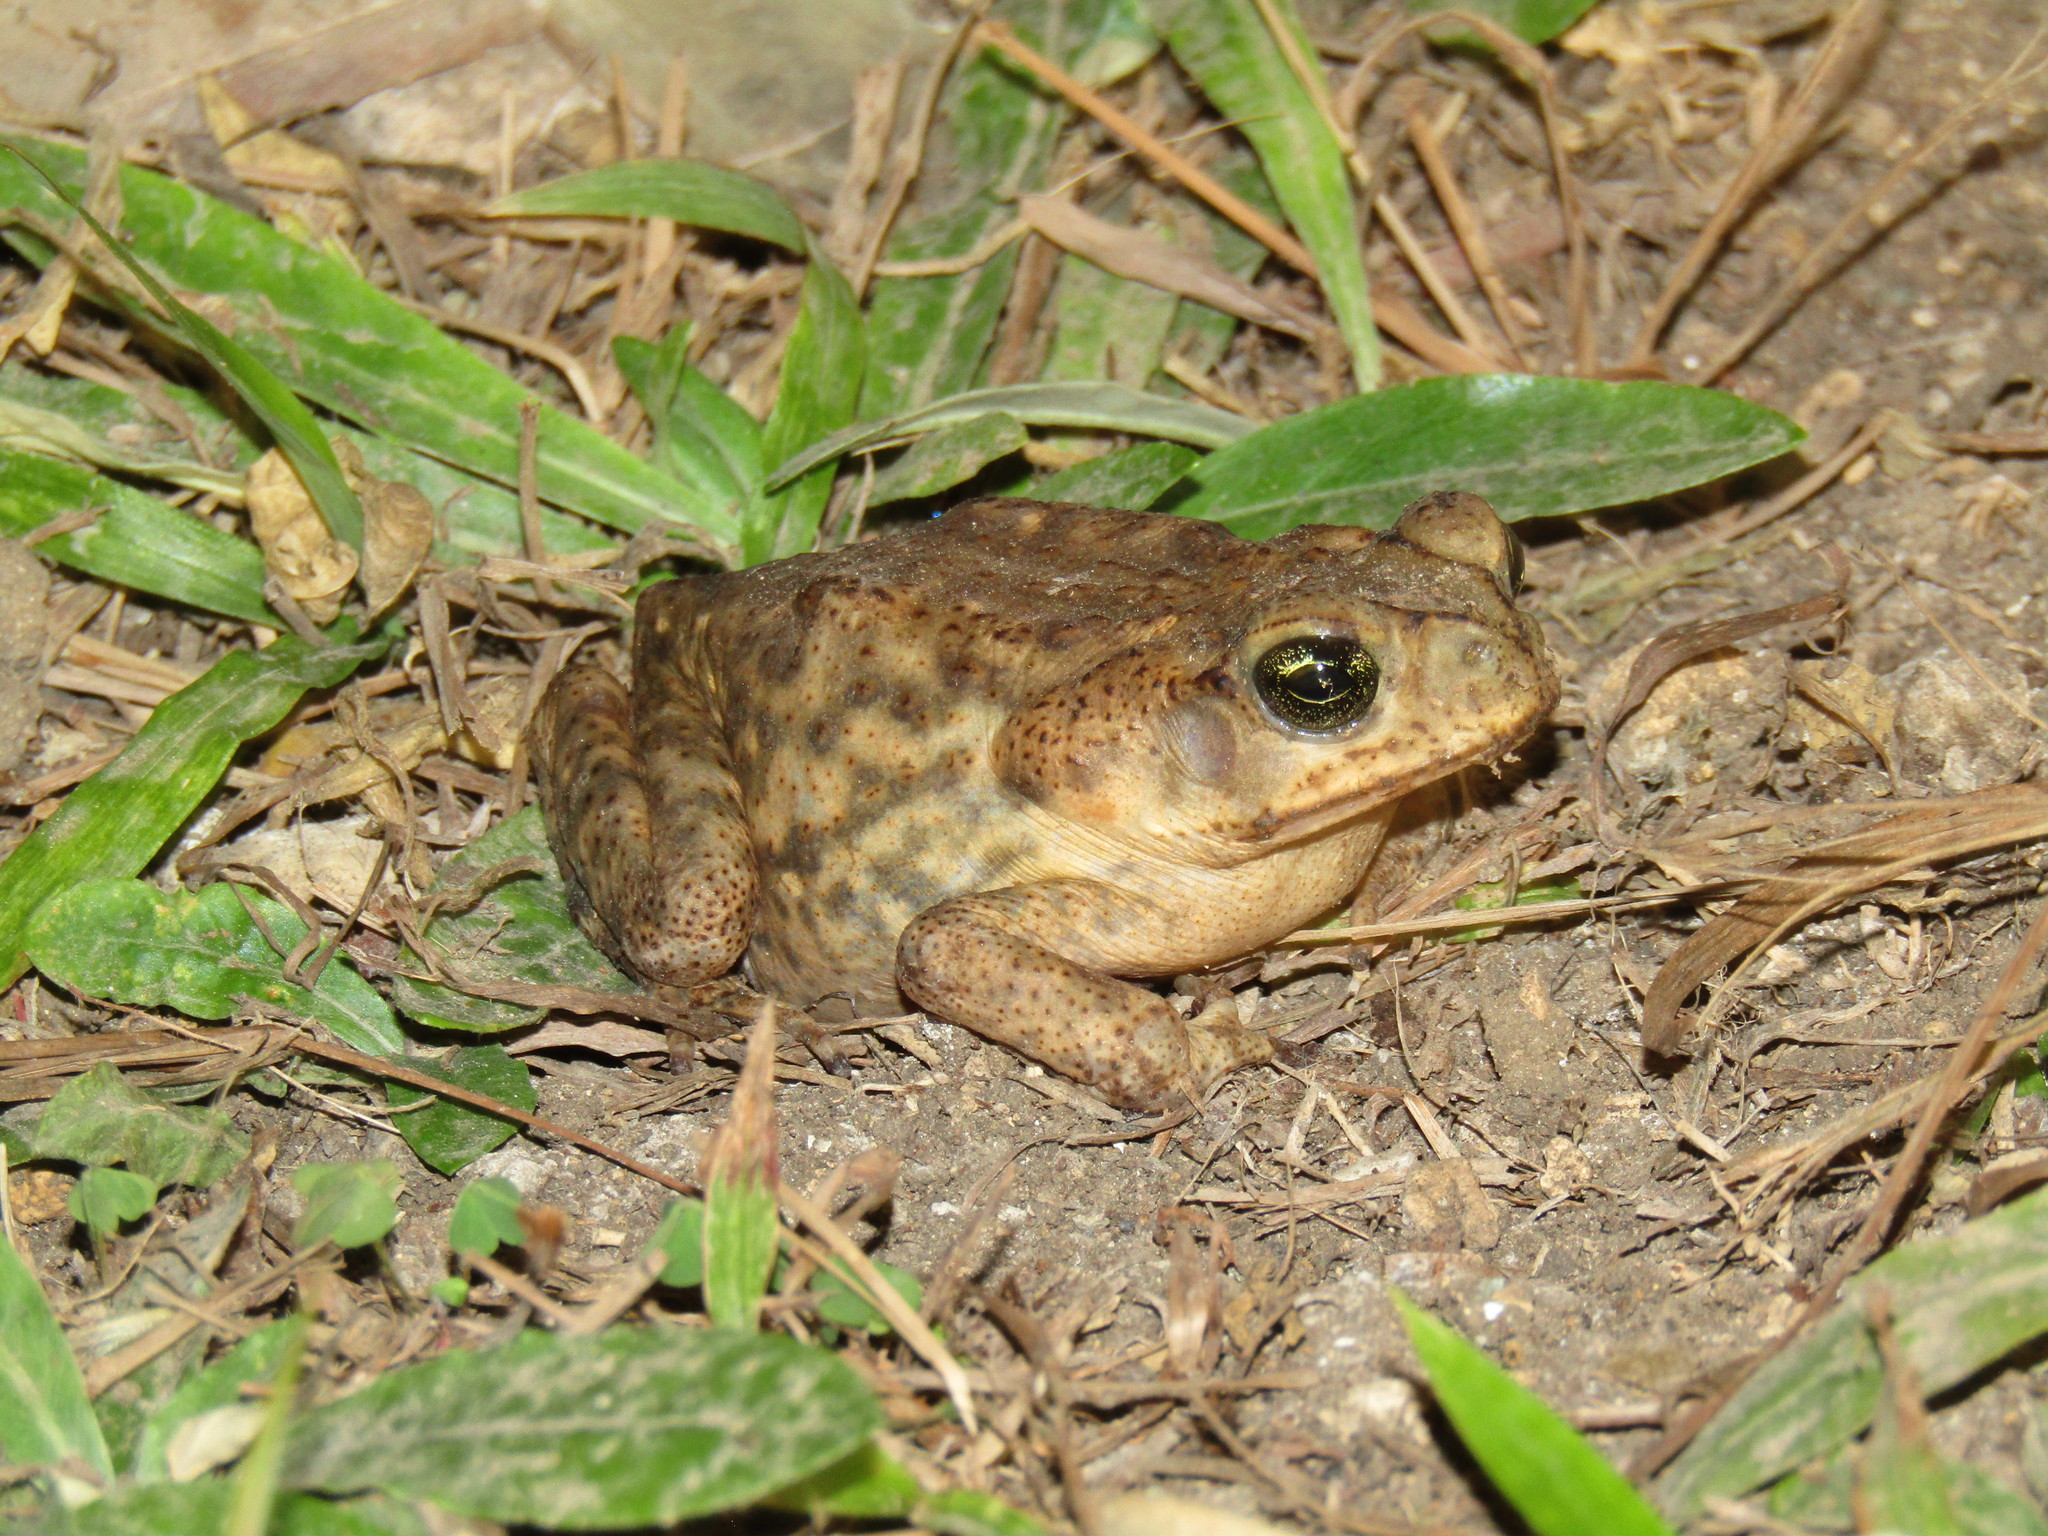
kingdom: Animalia
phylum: Chordata
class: Amphibia
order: Anura
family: Bufonidae
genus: Rhinella
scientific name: Rhinella horribilis
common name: Mesoamerican cane toad
